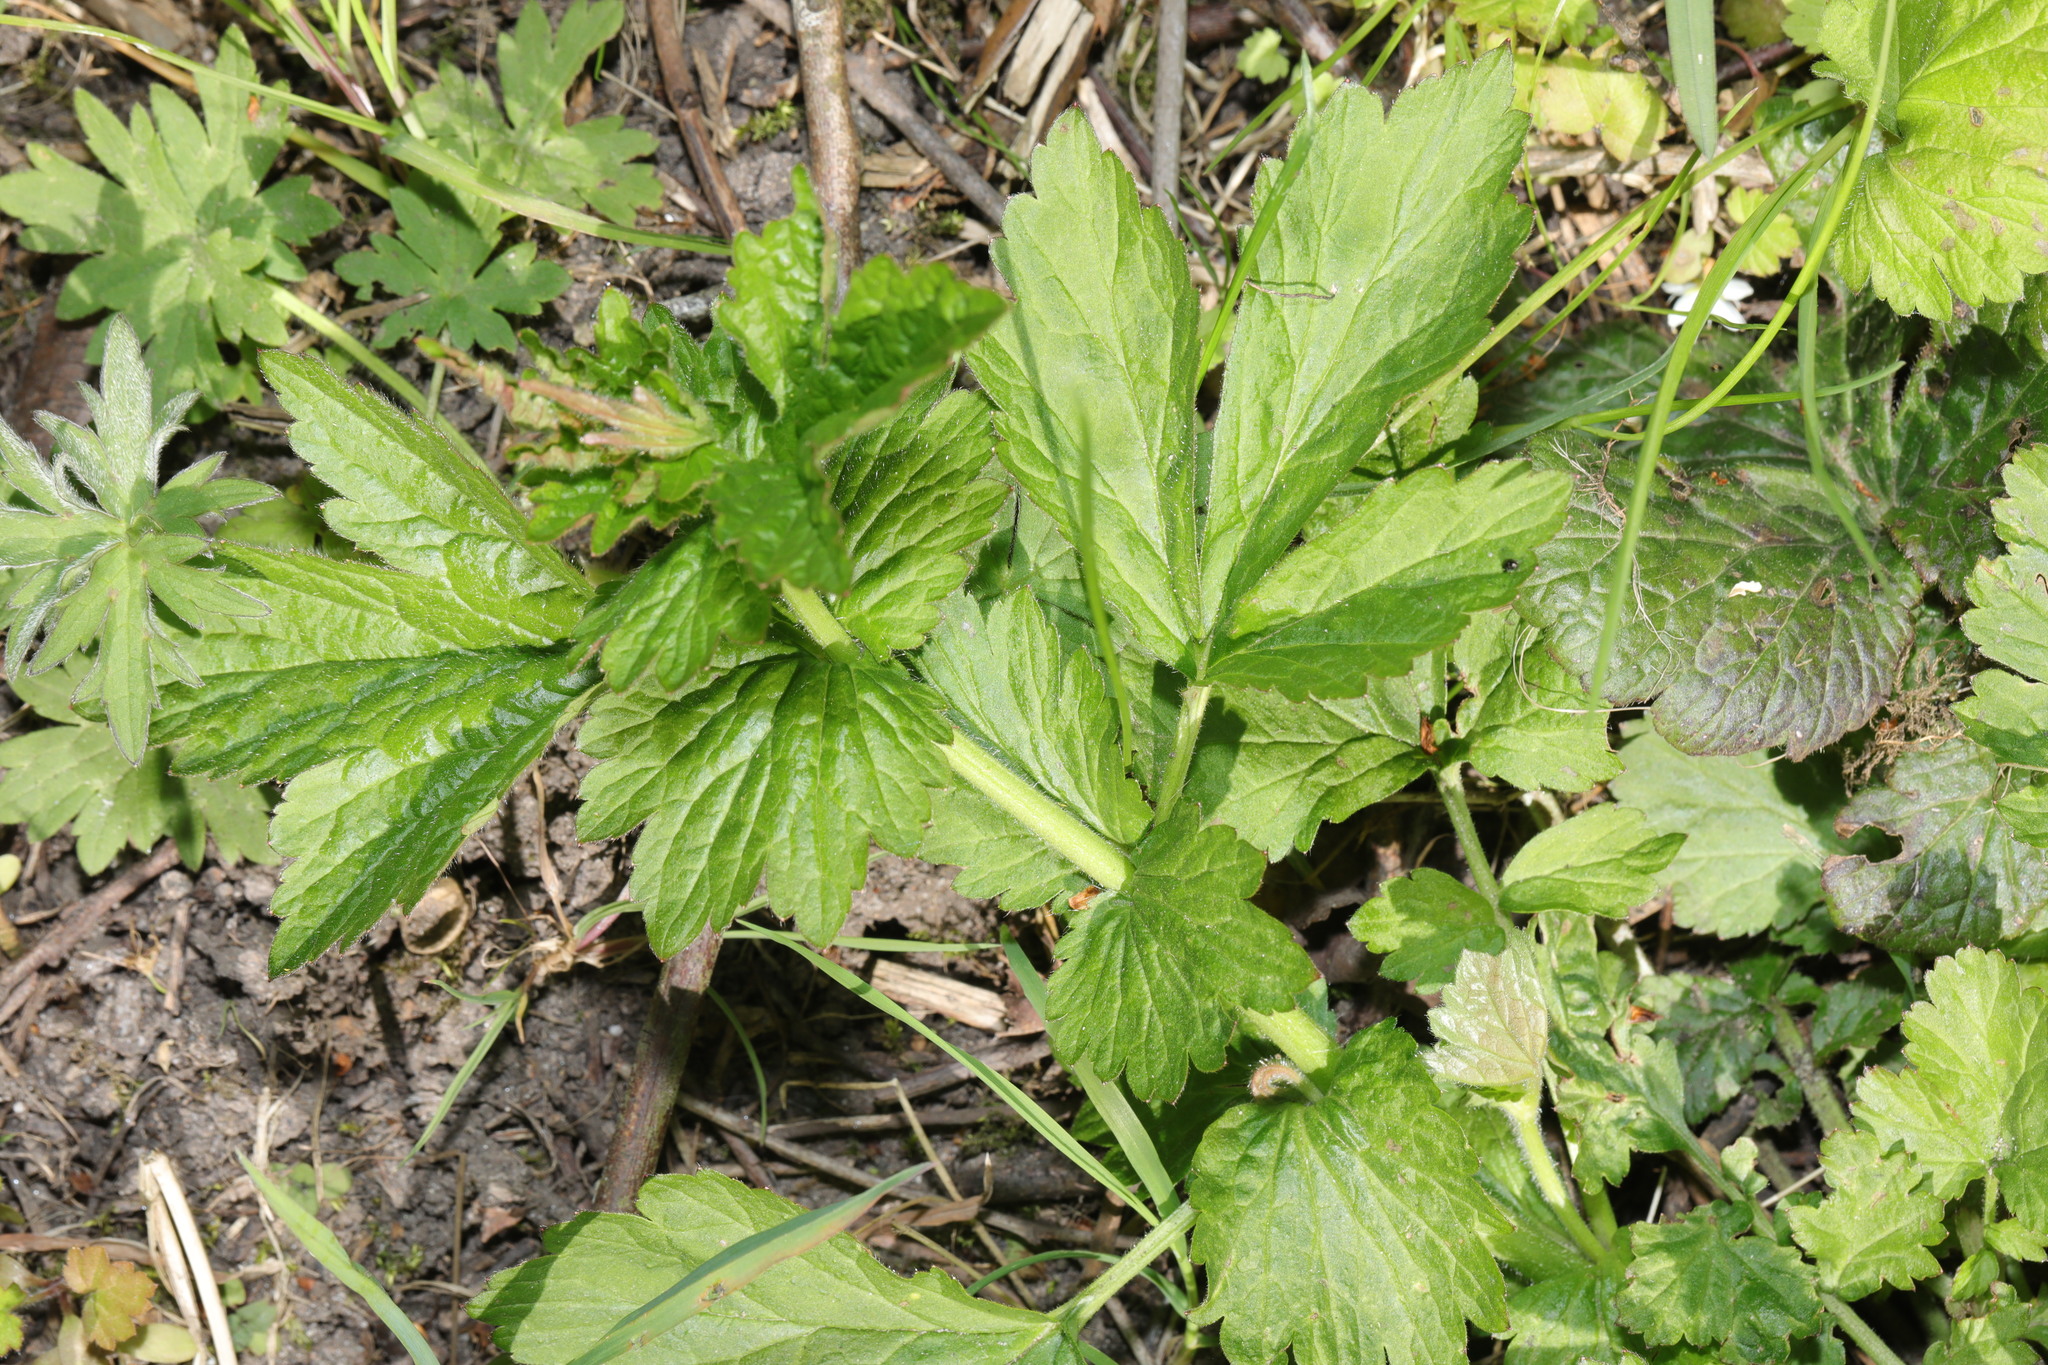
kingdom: Plantae
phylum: Tracheophyta
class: Magnoliopsida
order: Rosales
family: Rosaceae
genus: Geum
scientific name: Geum urbanum
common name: Wood avens
